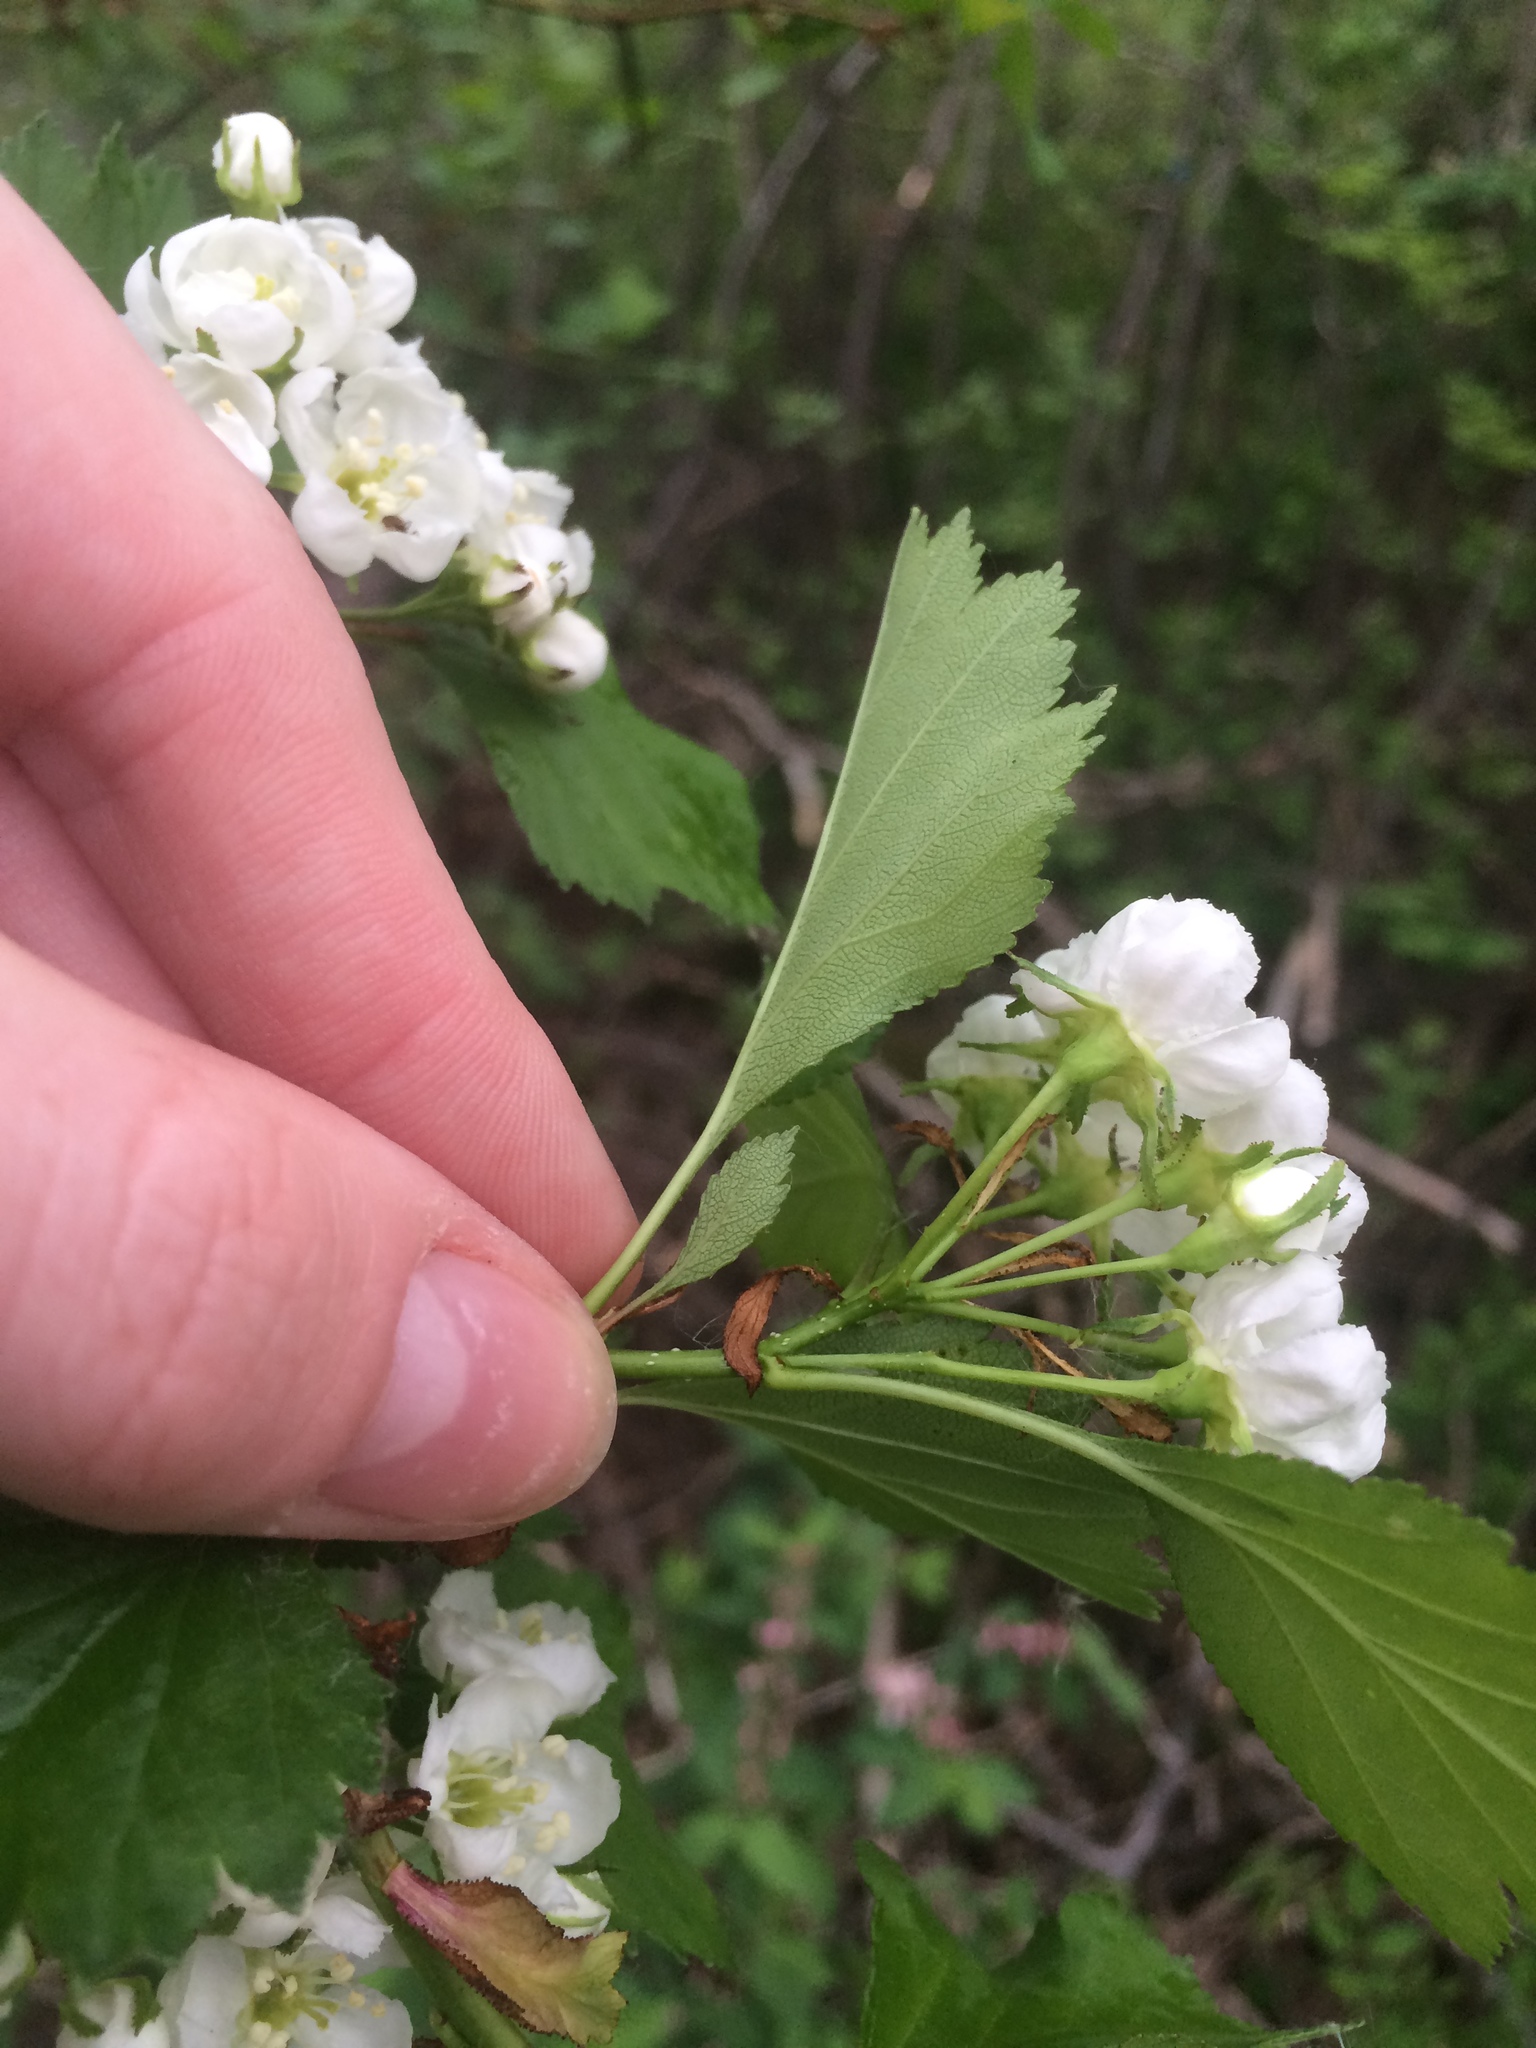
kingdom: Plantae
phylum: Tracheophyta
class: Magnoliopsida
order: Rosales
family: Rosaceae
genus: Crataegus
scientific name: Crataegus chrysocarpa
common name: Fire-berry hawthorn
